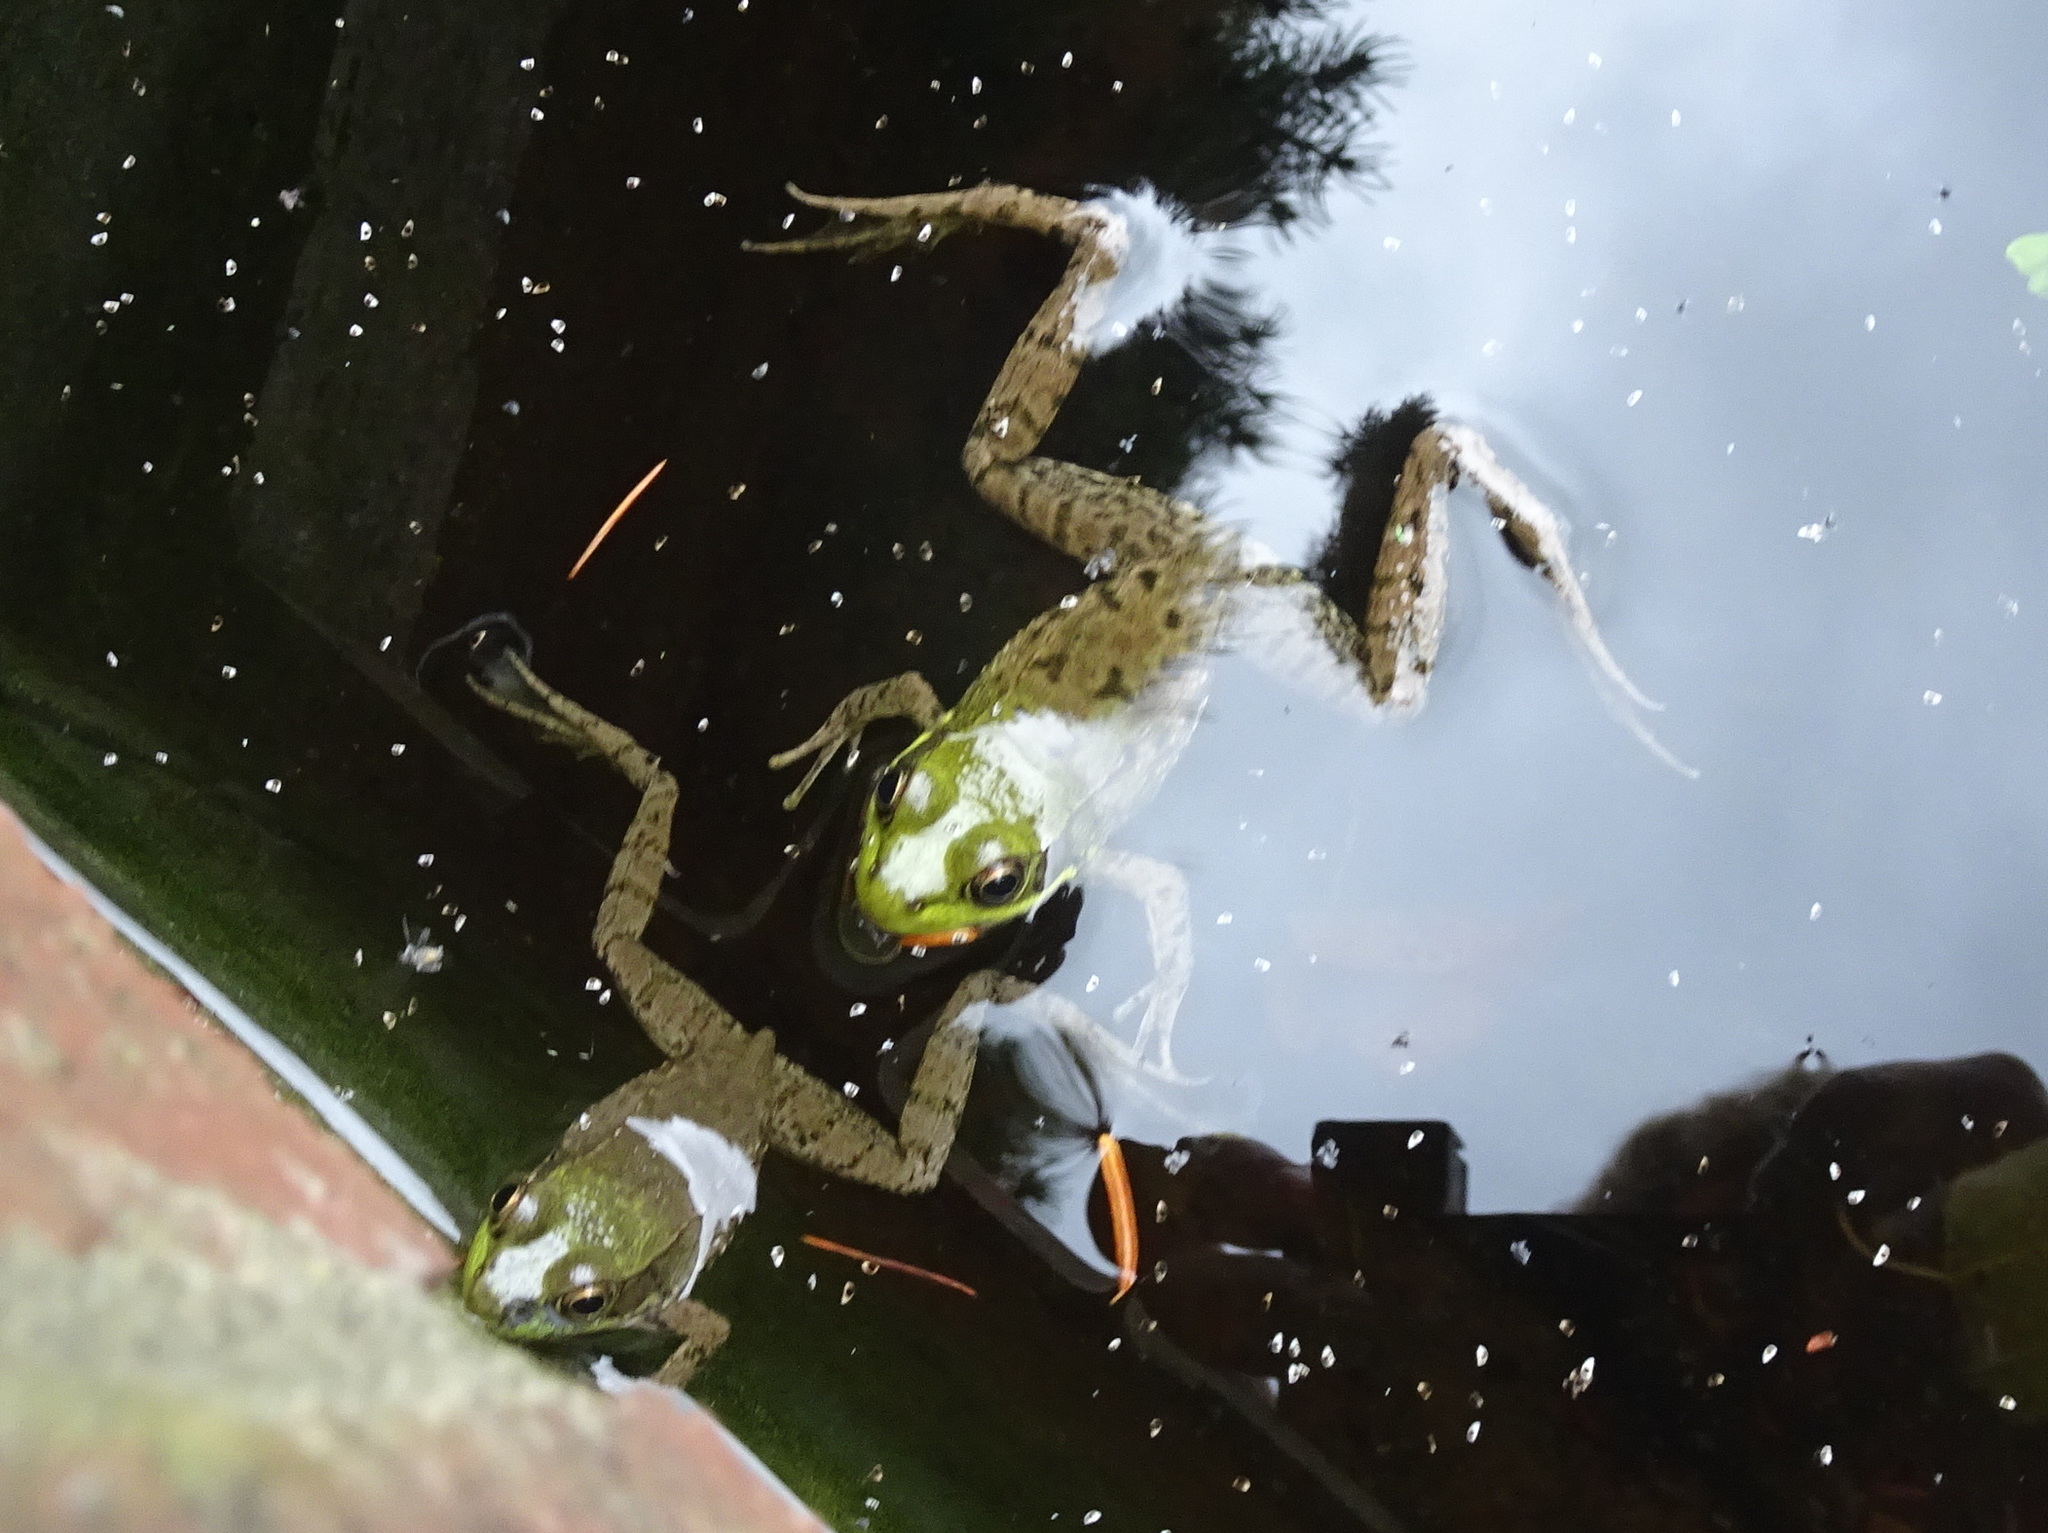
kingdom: Animalia
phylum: Chordata
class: Amphibia
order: Anura
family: Ranidae
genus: Lithobates
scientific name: Lithobates clamitans
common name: Green frog
